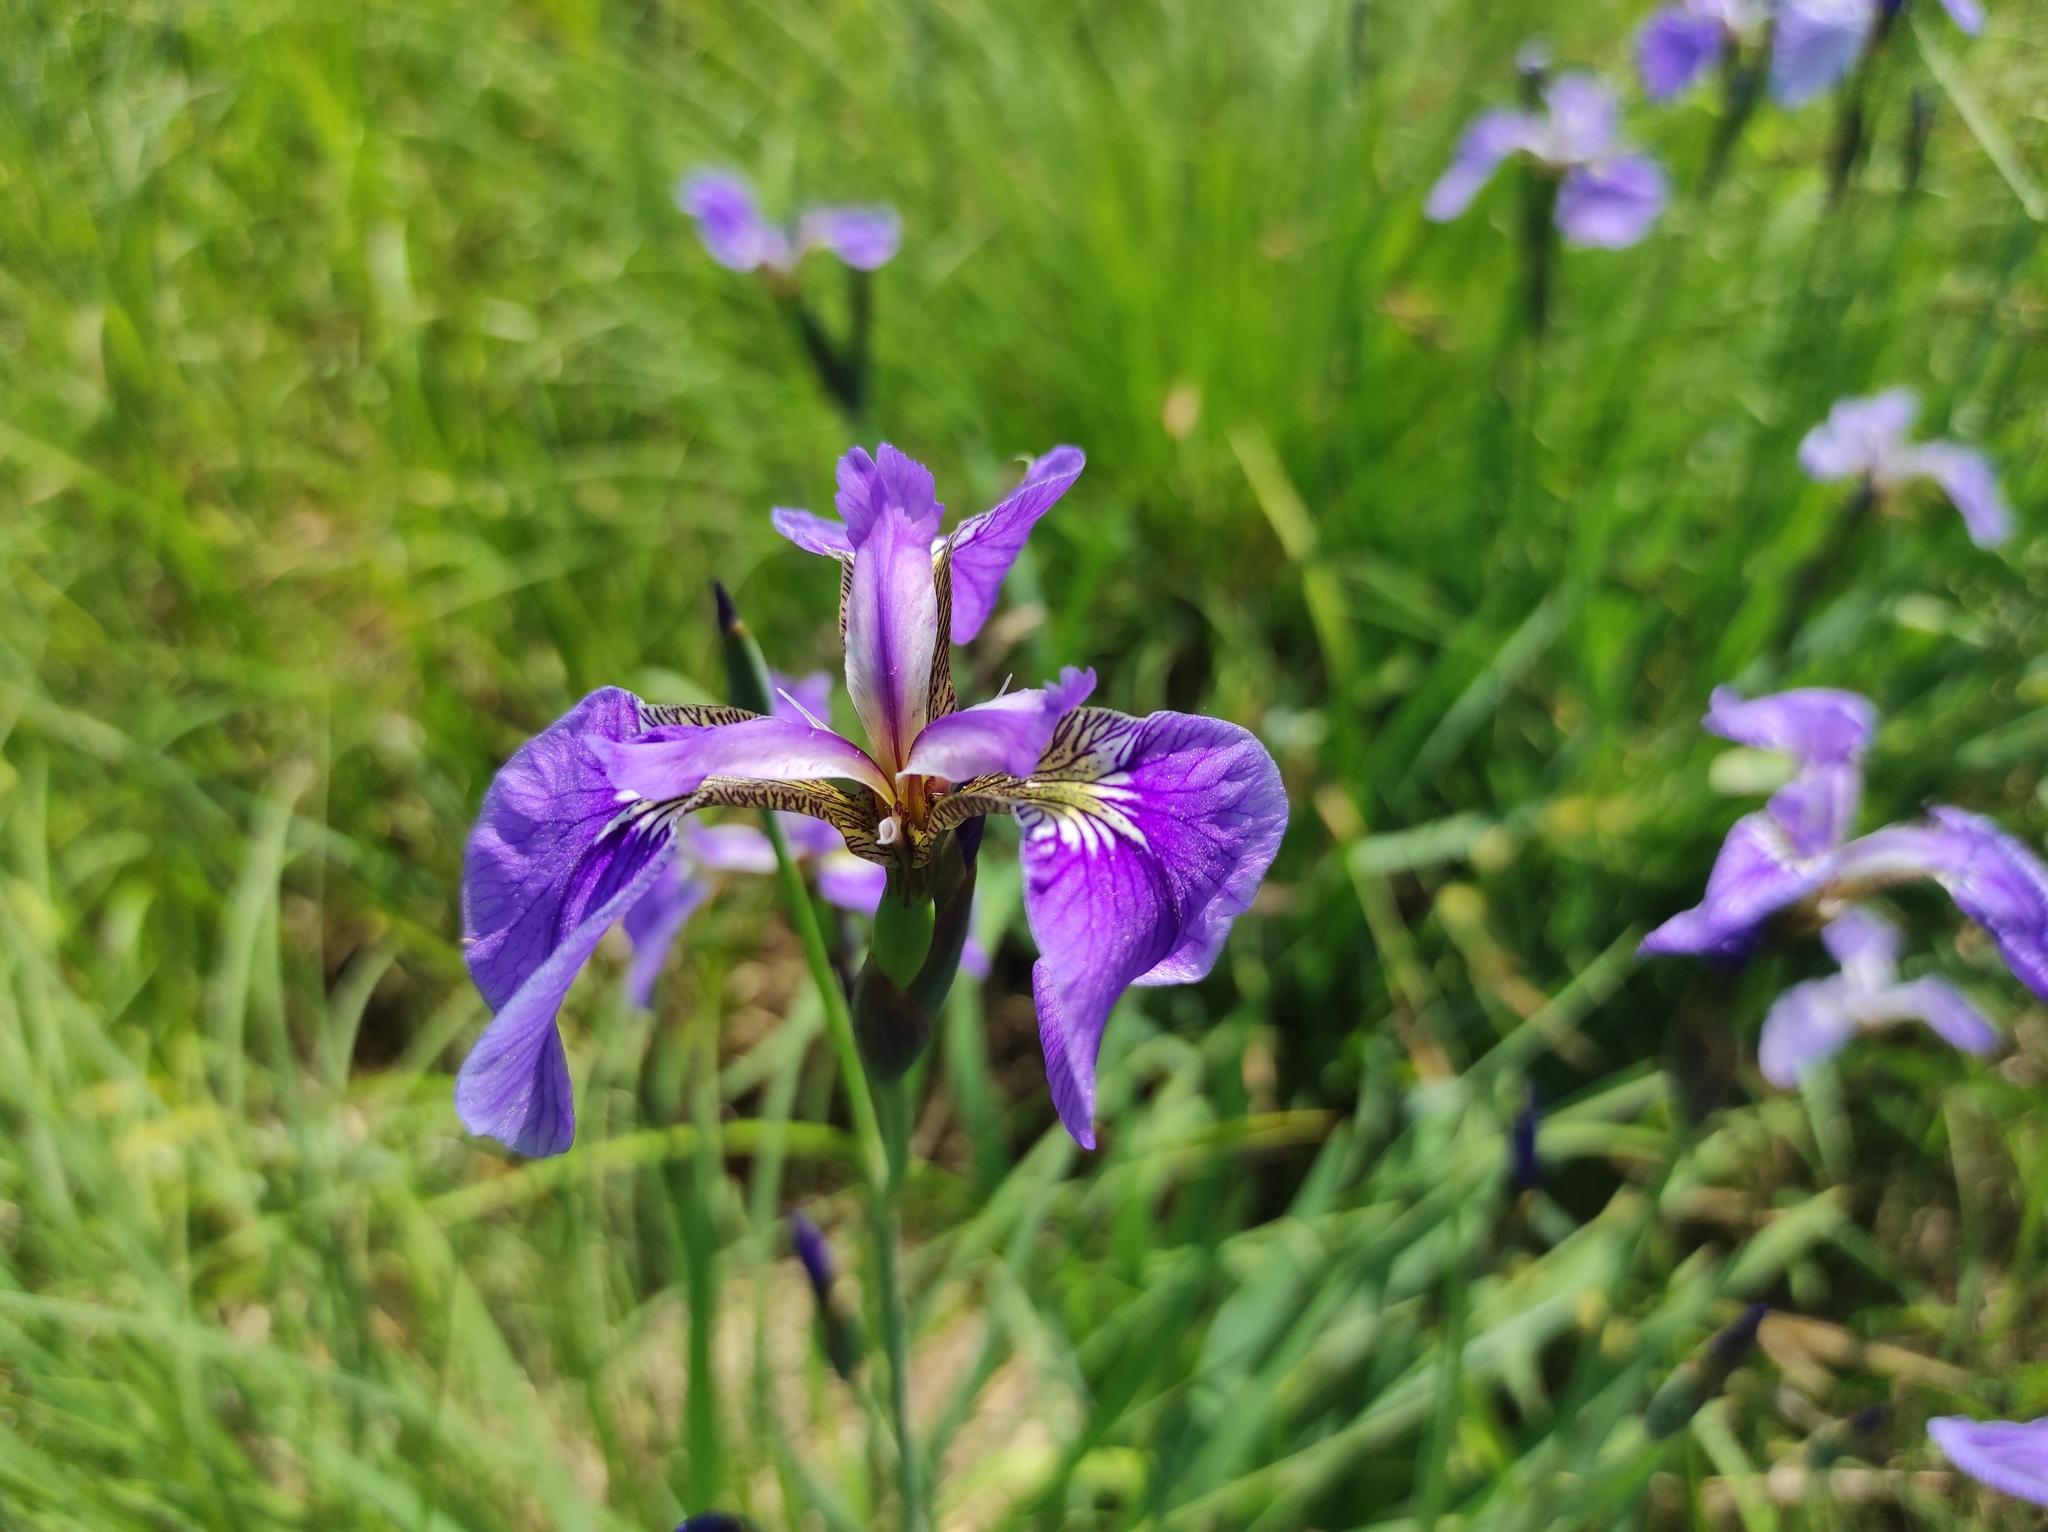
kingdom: Plantae
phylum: Tracheophyta
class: Liliopsida
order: Asparagales
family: Iridaceae
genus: Iris
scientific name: Iris setosa
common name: Arctic blue flag
